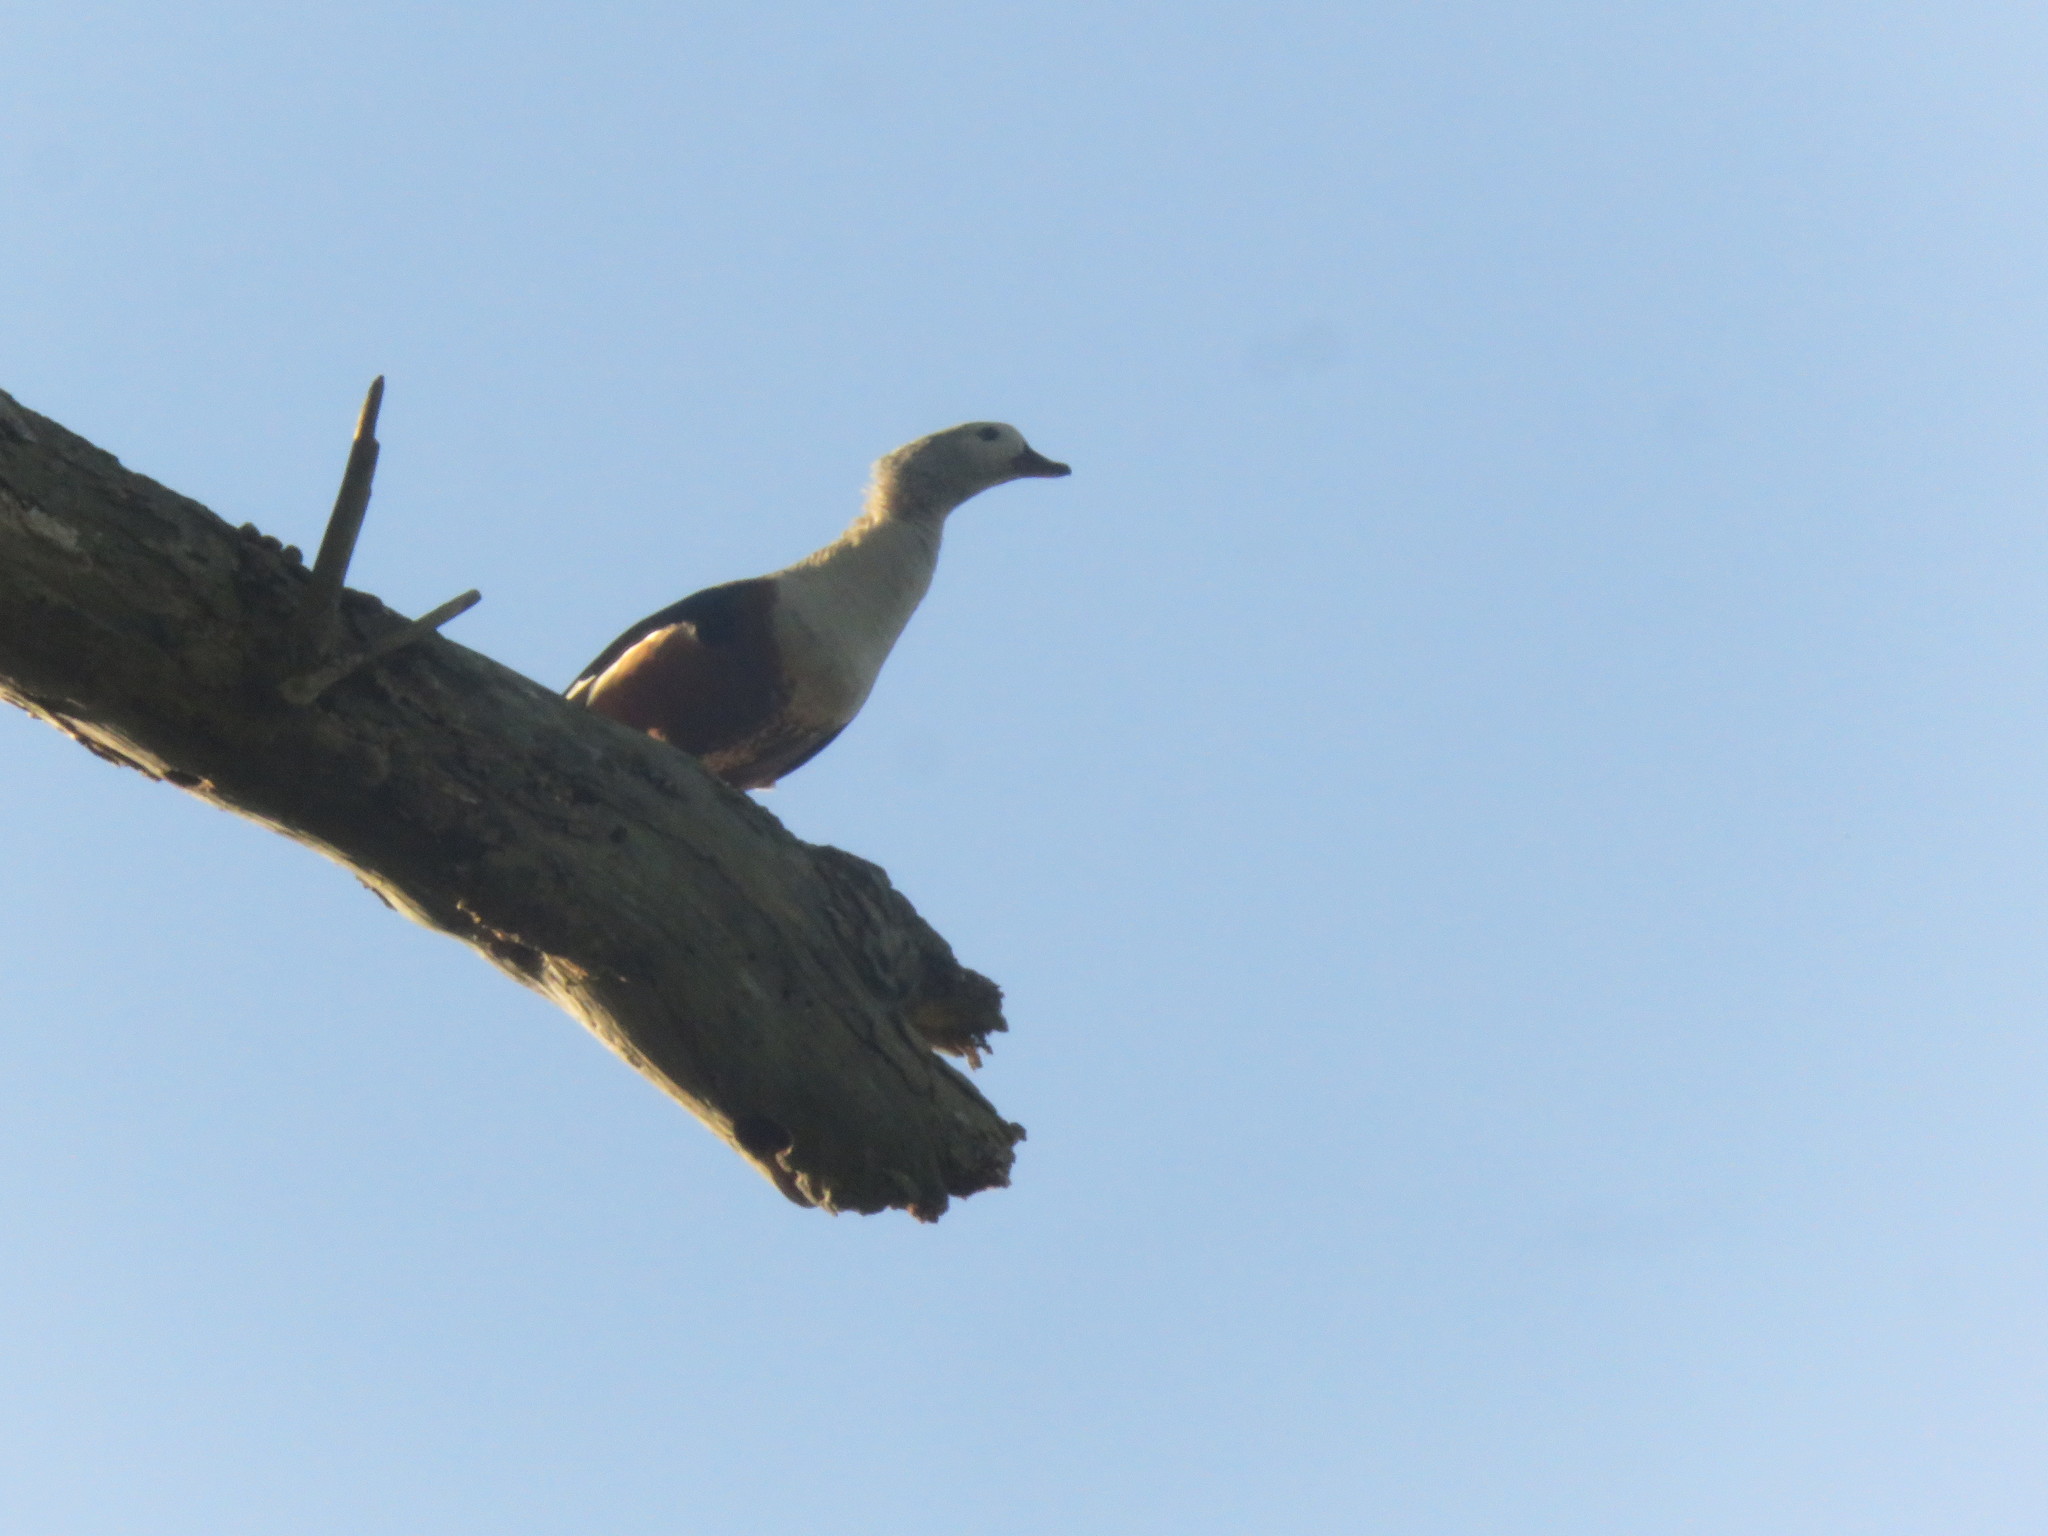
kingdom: Animalia
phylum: Chordata
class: Aves
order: Anseriformes
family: Anatidae
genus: Oressochen
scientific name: Oressochen jubatus
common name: Orinoco goose
